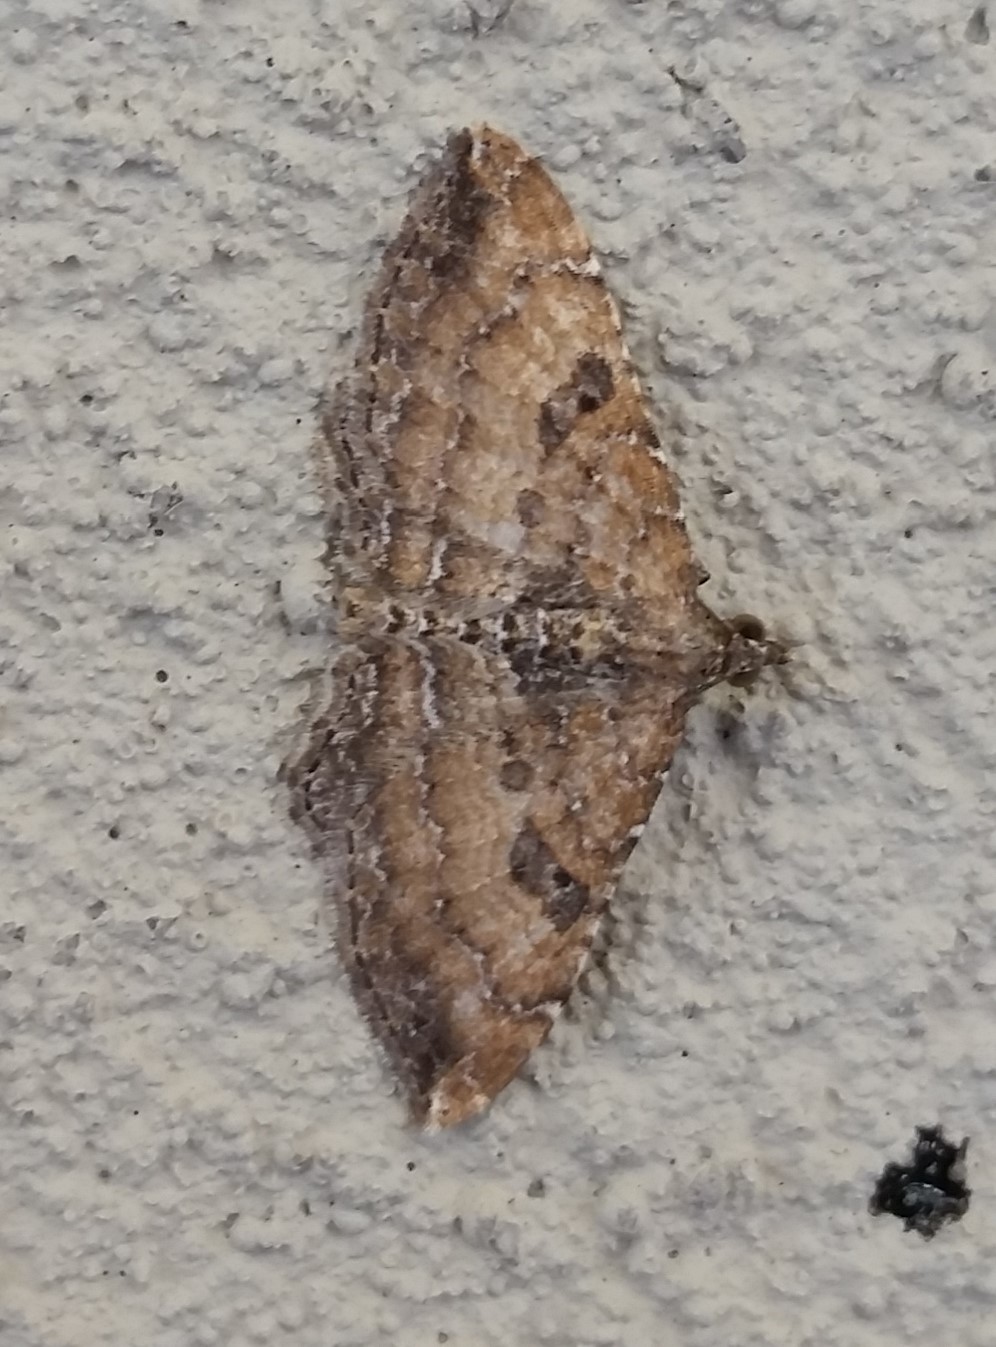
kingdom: Animalia
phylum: Arthropoda
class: Insecta
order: Lepidoptera
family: Geometridae
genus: Orthonama
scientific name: Orthonama obstipata
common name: The gem
